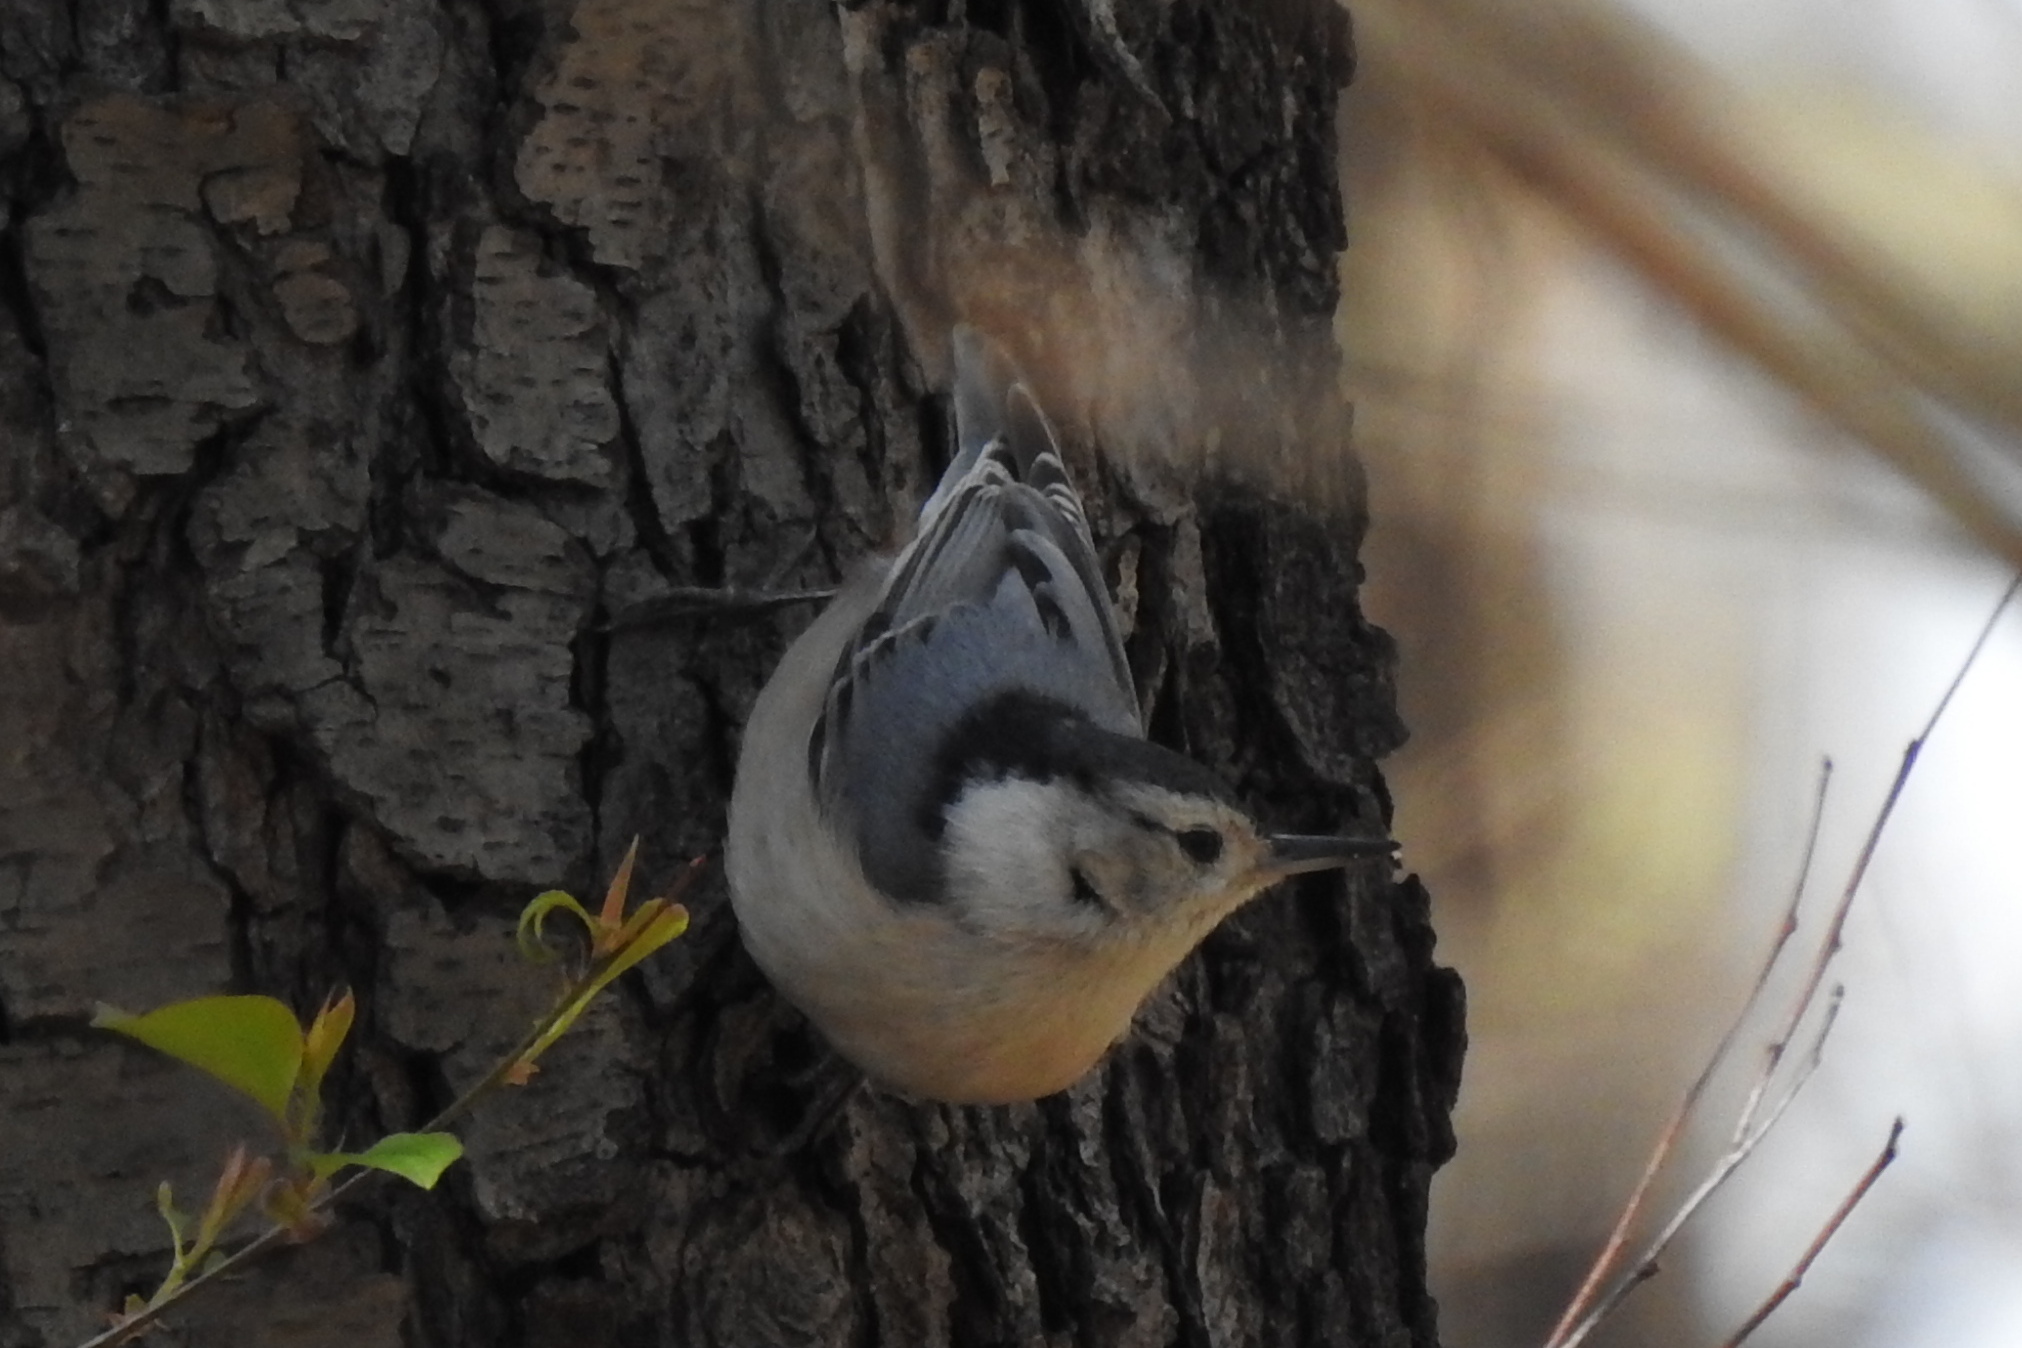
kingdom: Animalia
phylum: Chordata
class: Aves
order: Passeriformes
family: Sittidae
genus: Sitta
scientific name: Sitta carolinensis
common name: White-breasted nuthatch
